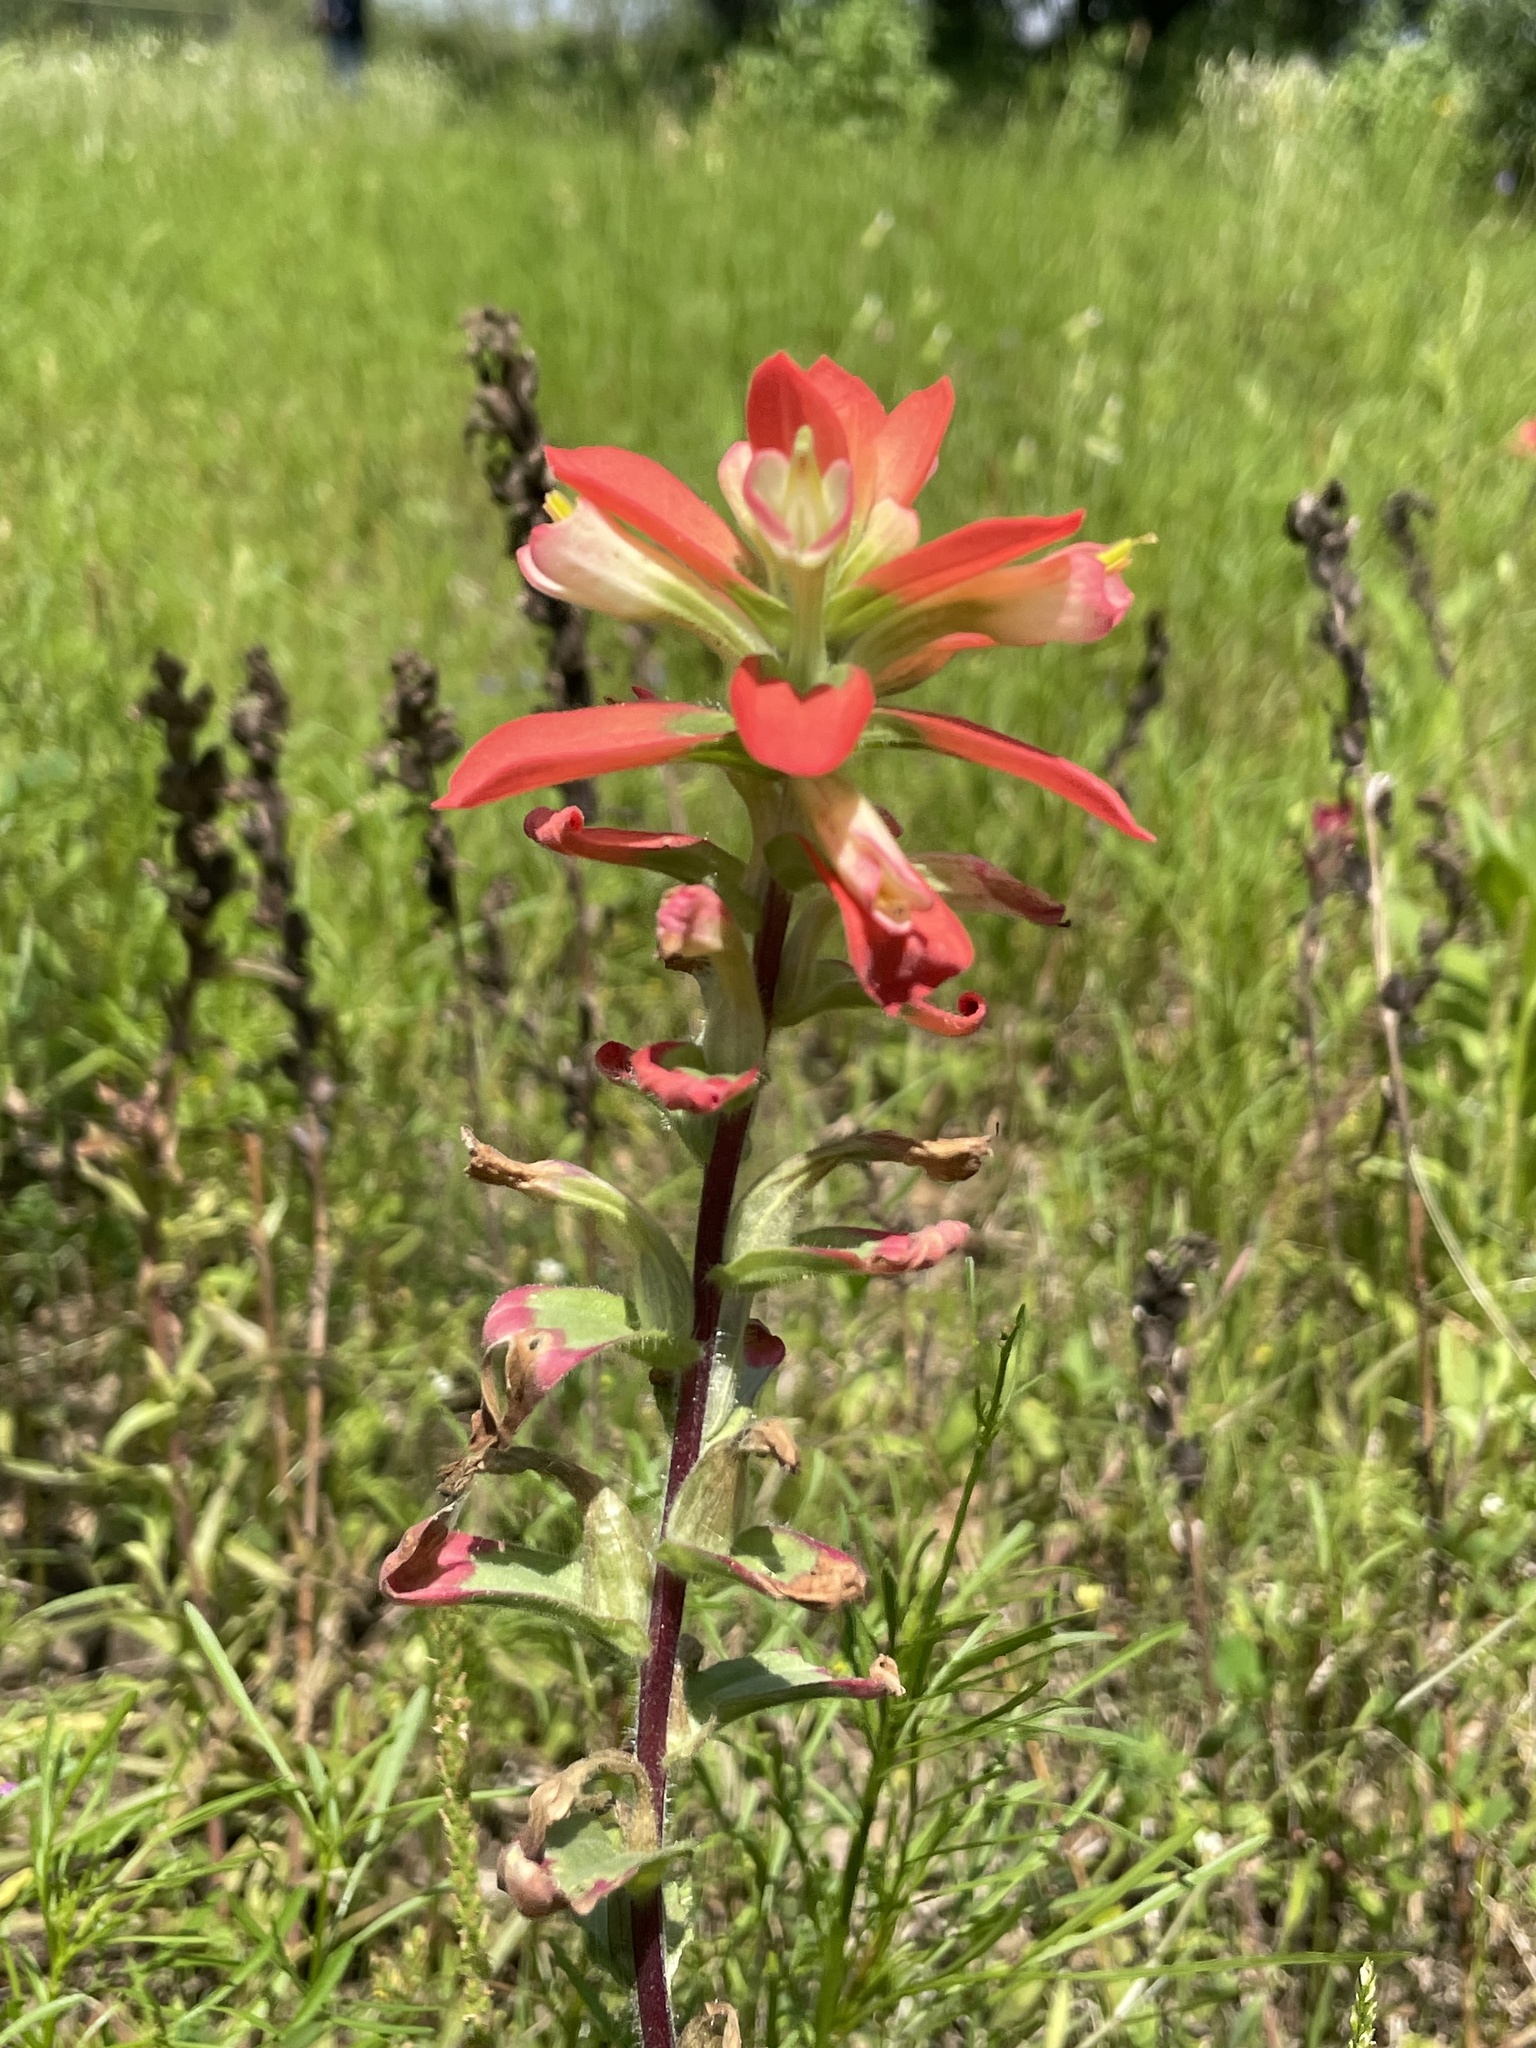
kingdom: Plantae
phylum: Tracheophyta
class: Magnoliopsida
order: Lamiales
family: Orobanchaceae
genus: Castilleja
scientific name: Castilleja indivisa
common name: Texas paintbrush
